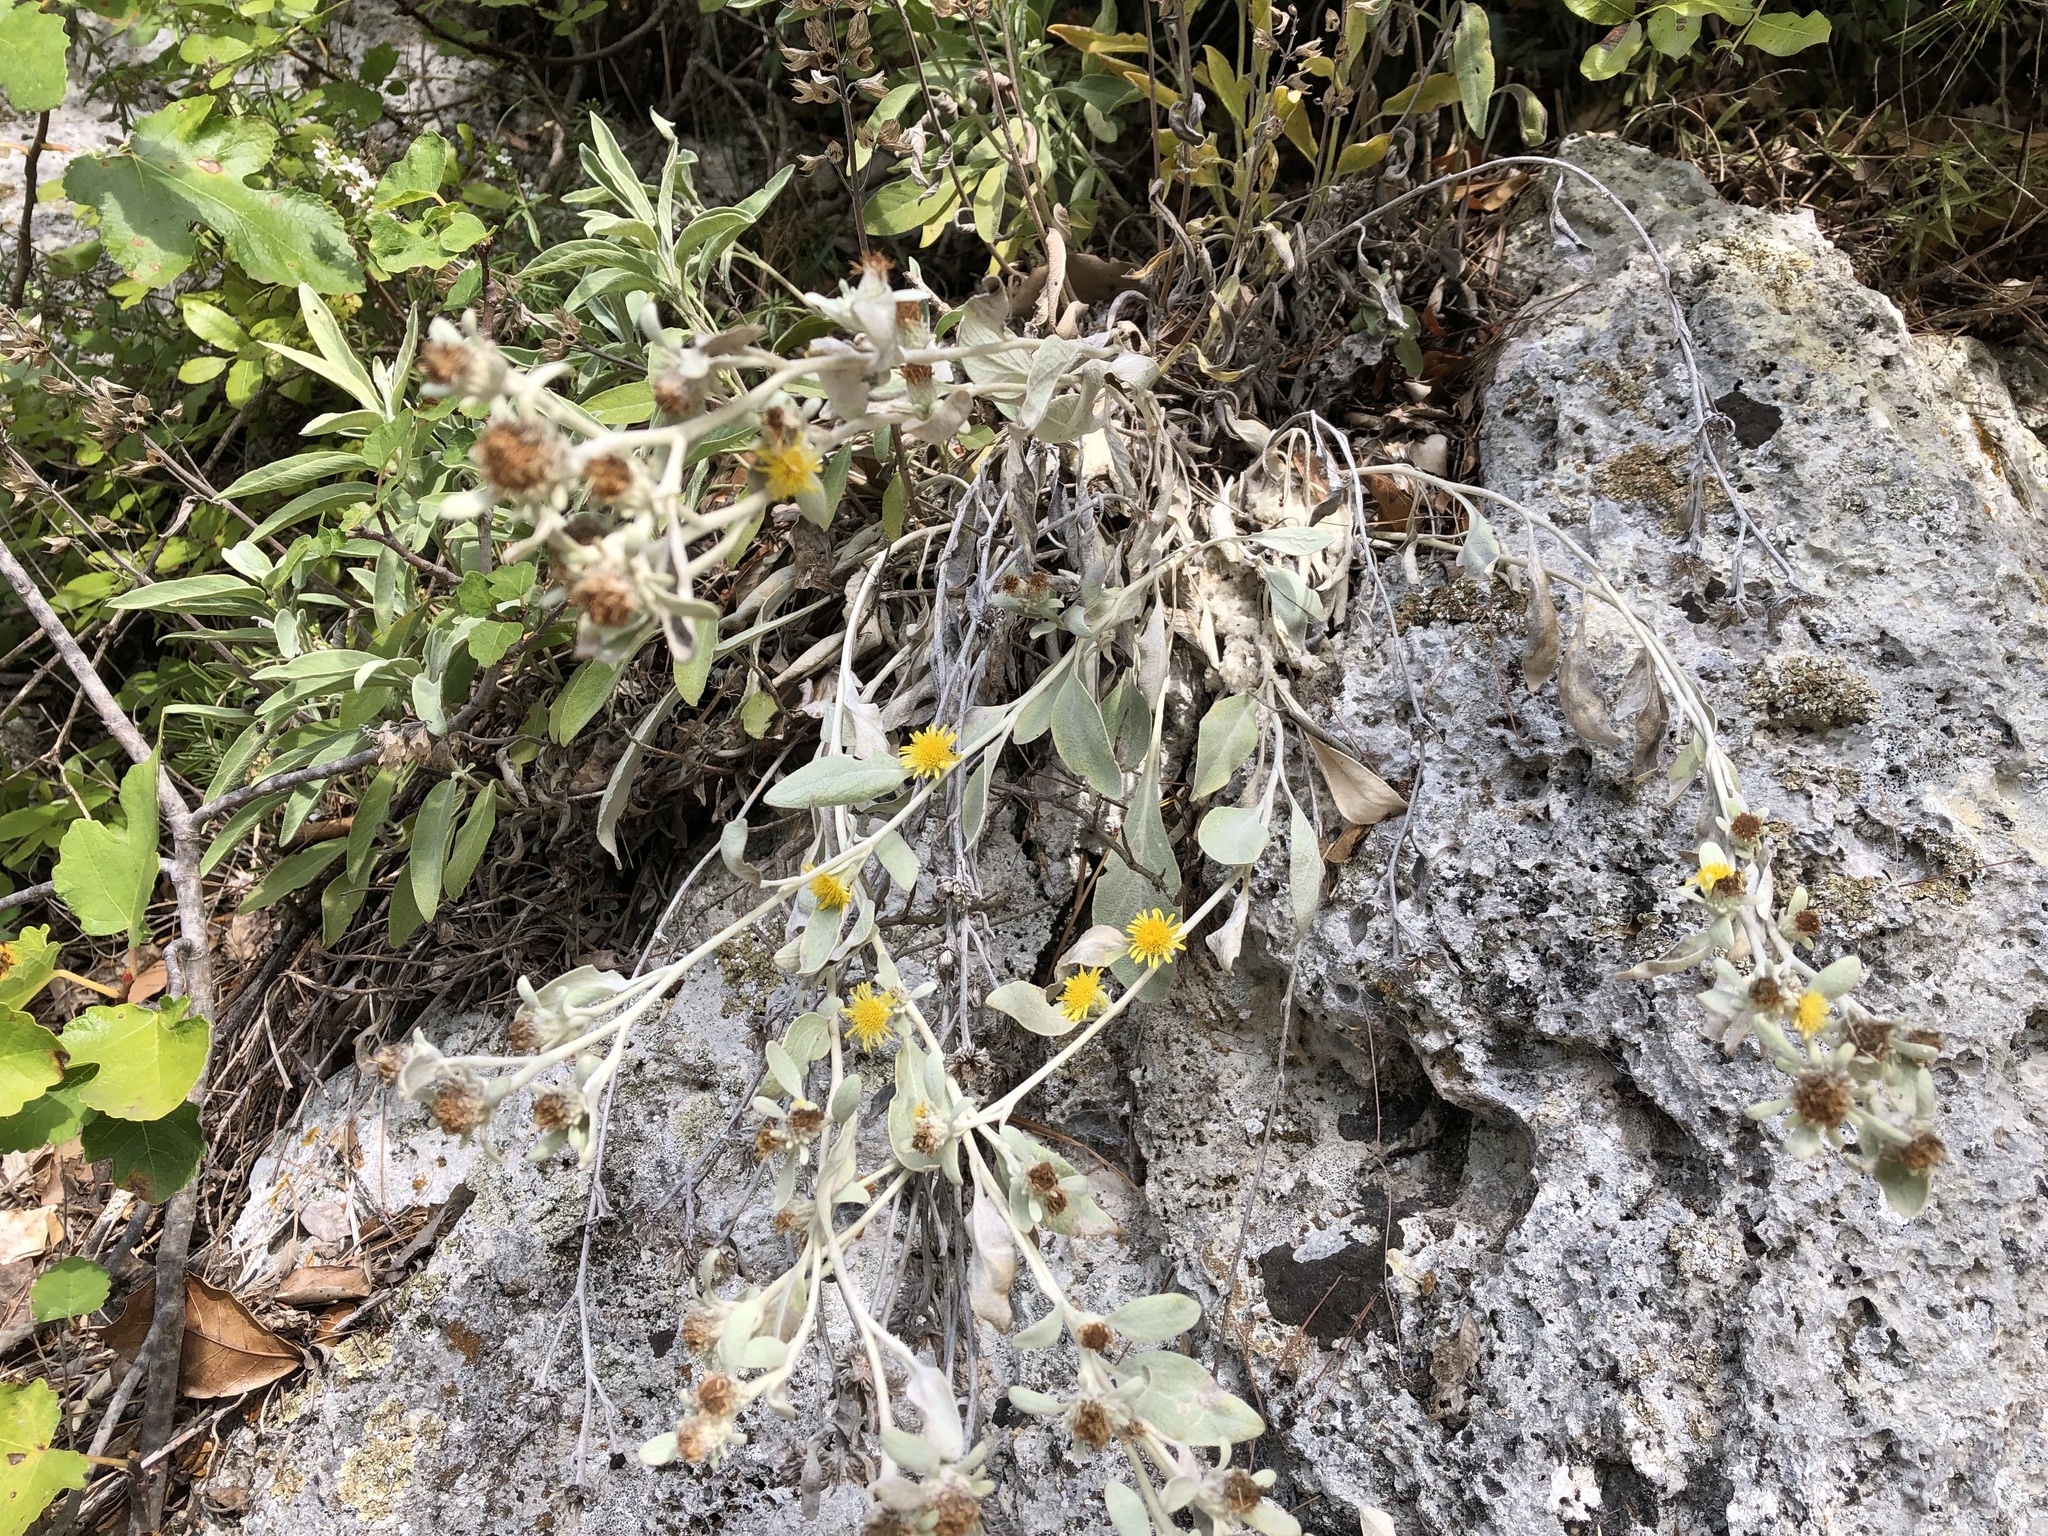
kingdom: Plantae
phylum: Tracheophyta
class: Magnoliopsida
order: Asterales
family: Asteraceae
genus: Pentanema
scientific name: Pentanema verbascifolium
